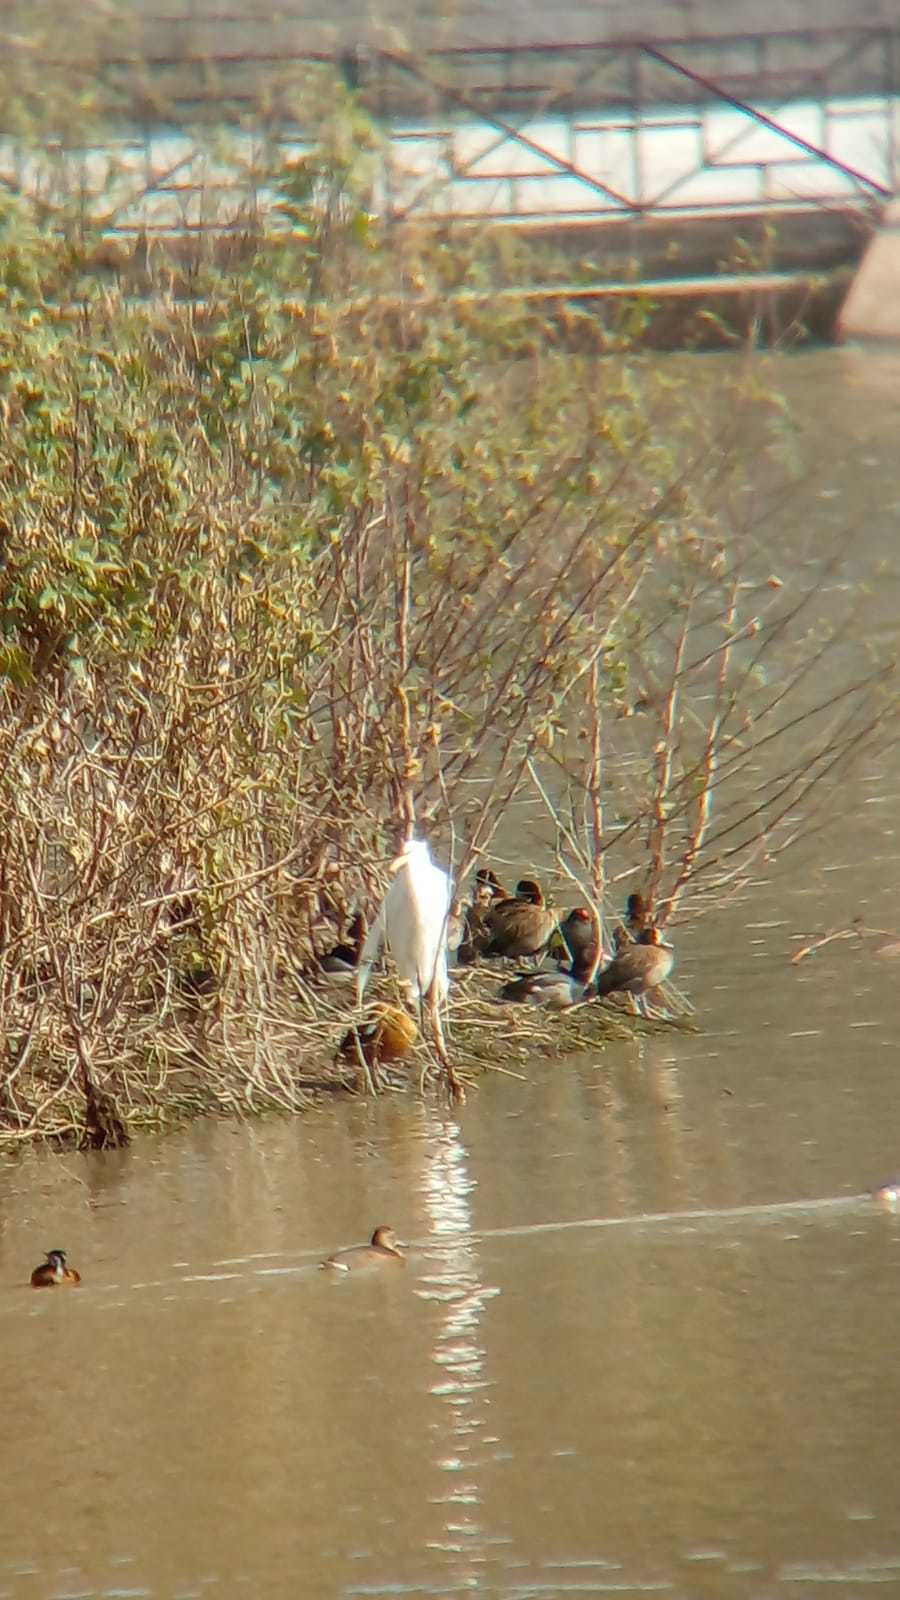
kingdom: Animalia
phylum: Chordata
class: Aves
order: Pelecaniformes
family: Ardeidae
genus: Ardea
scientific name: Ardea alba
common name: Great egret
